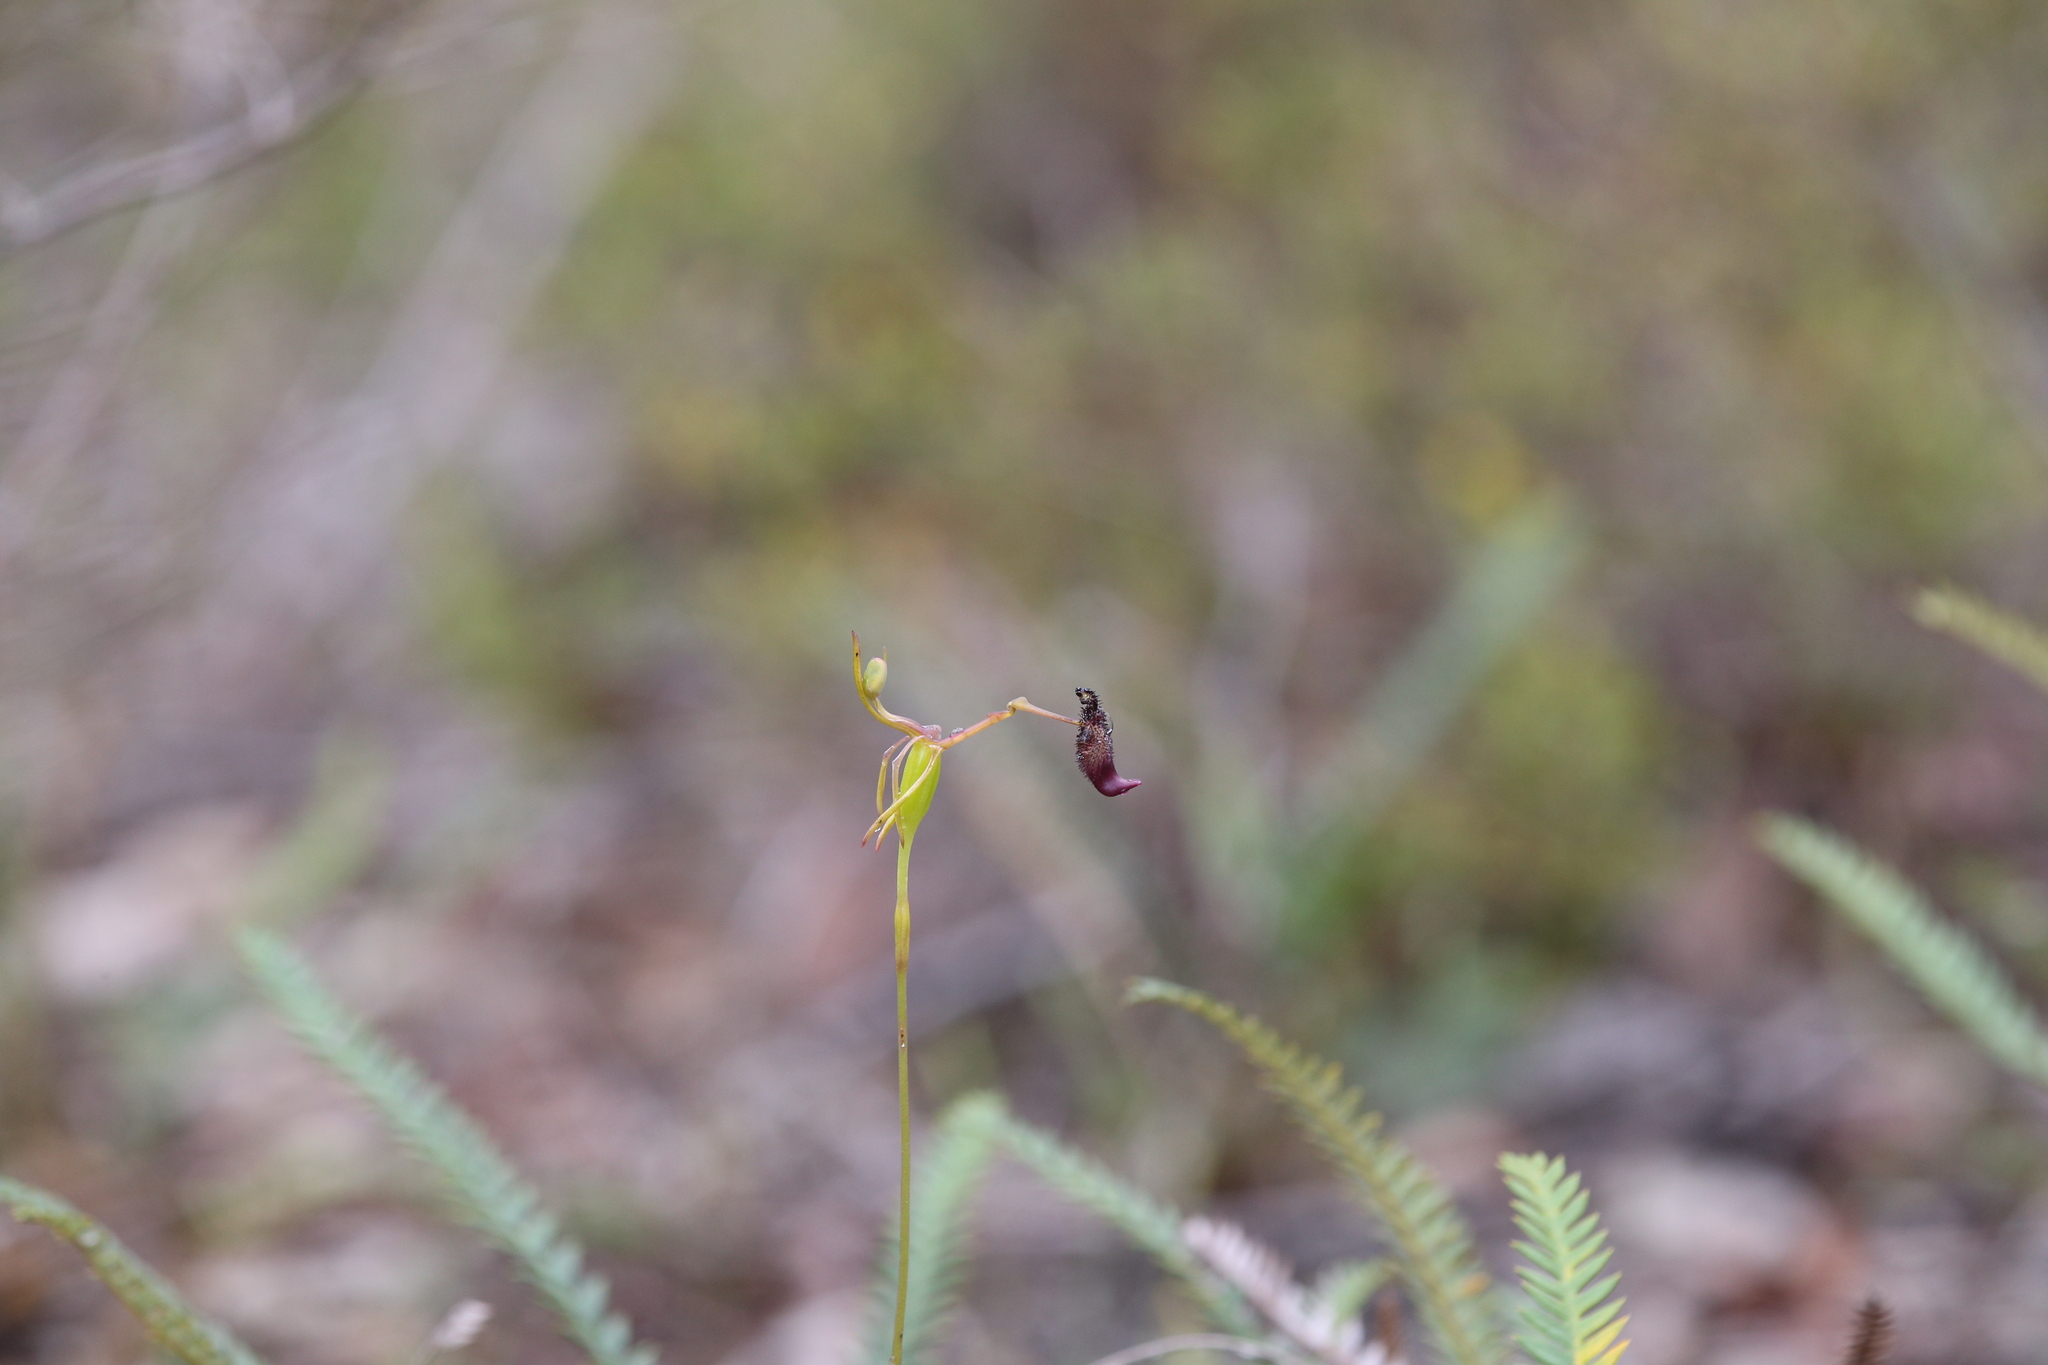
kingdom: Plantae
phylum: Tracheophyta
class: Liliopsida
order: Asparagales
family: Orchidaceae
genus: Drakaea
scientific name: Drakaea gracilis
